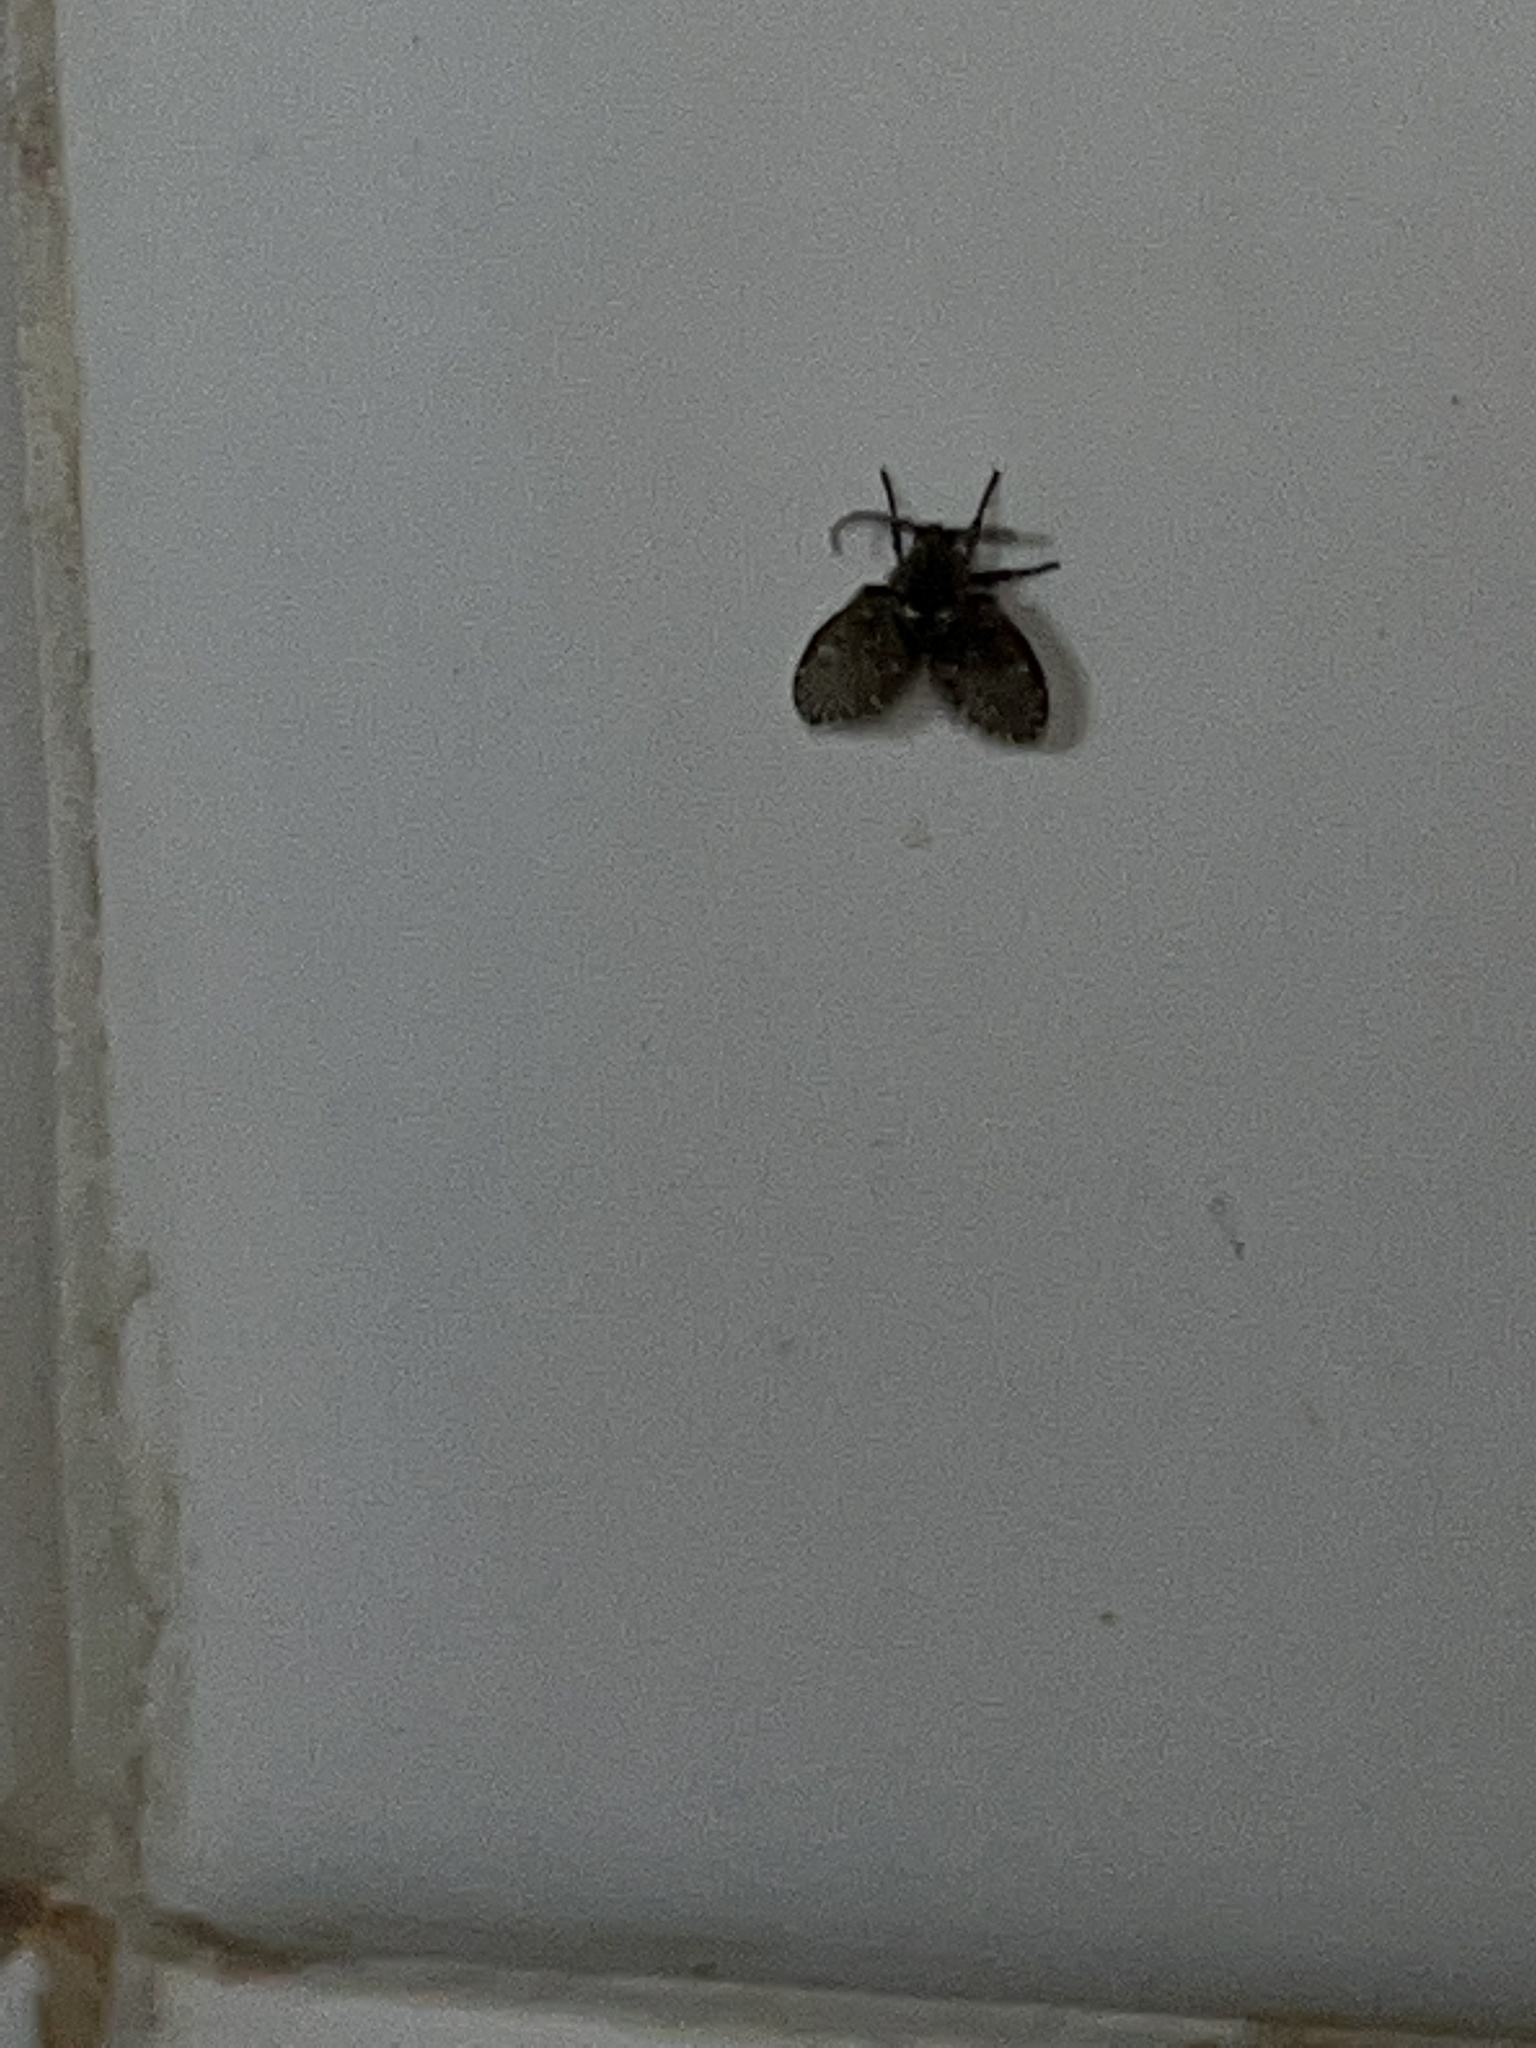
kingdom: Animalia
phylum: Arthropoda
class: Insecta
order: Diptera
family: Psychodidae
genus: Clogmia
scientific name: Clogmia albipunctatus
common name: White-spotted moth fly
